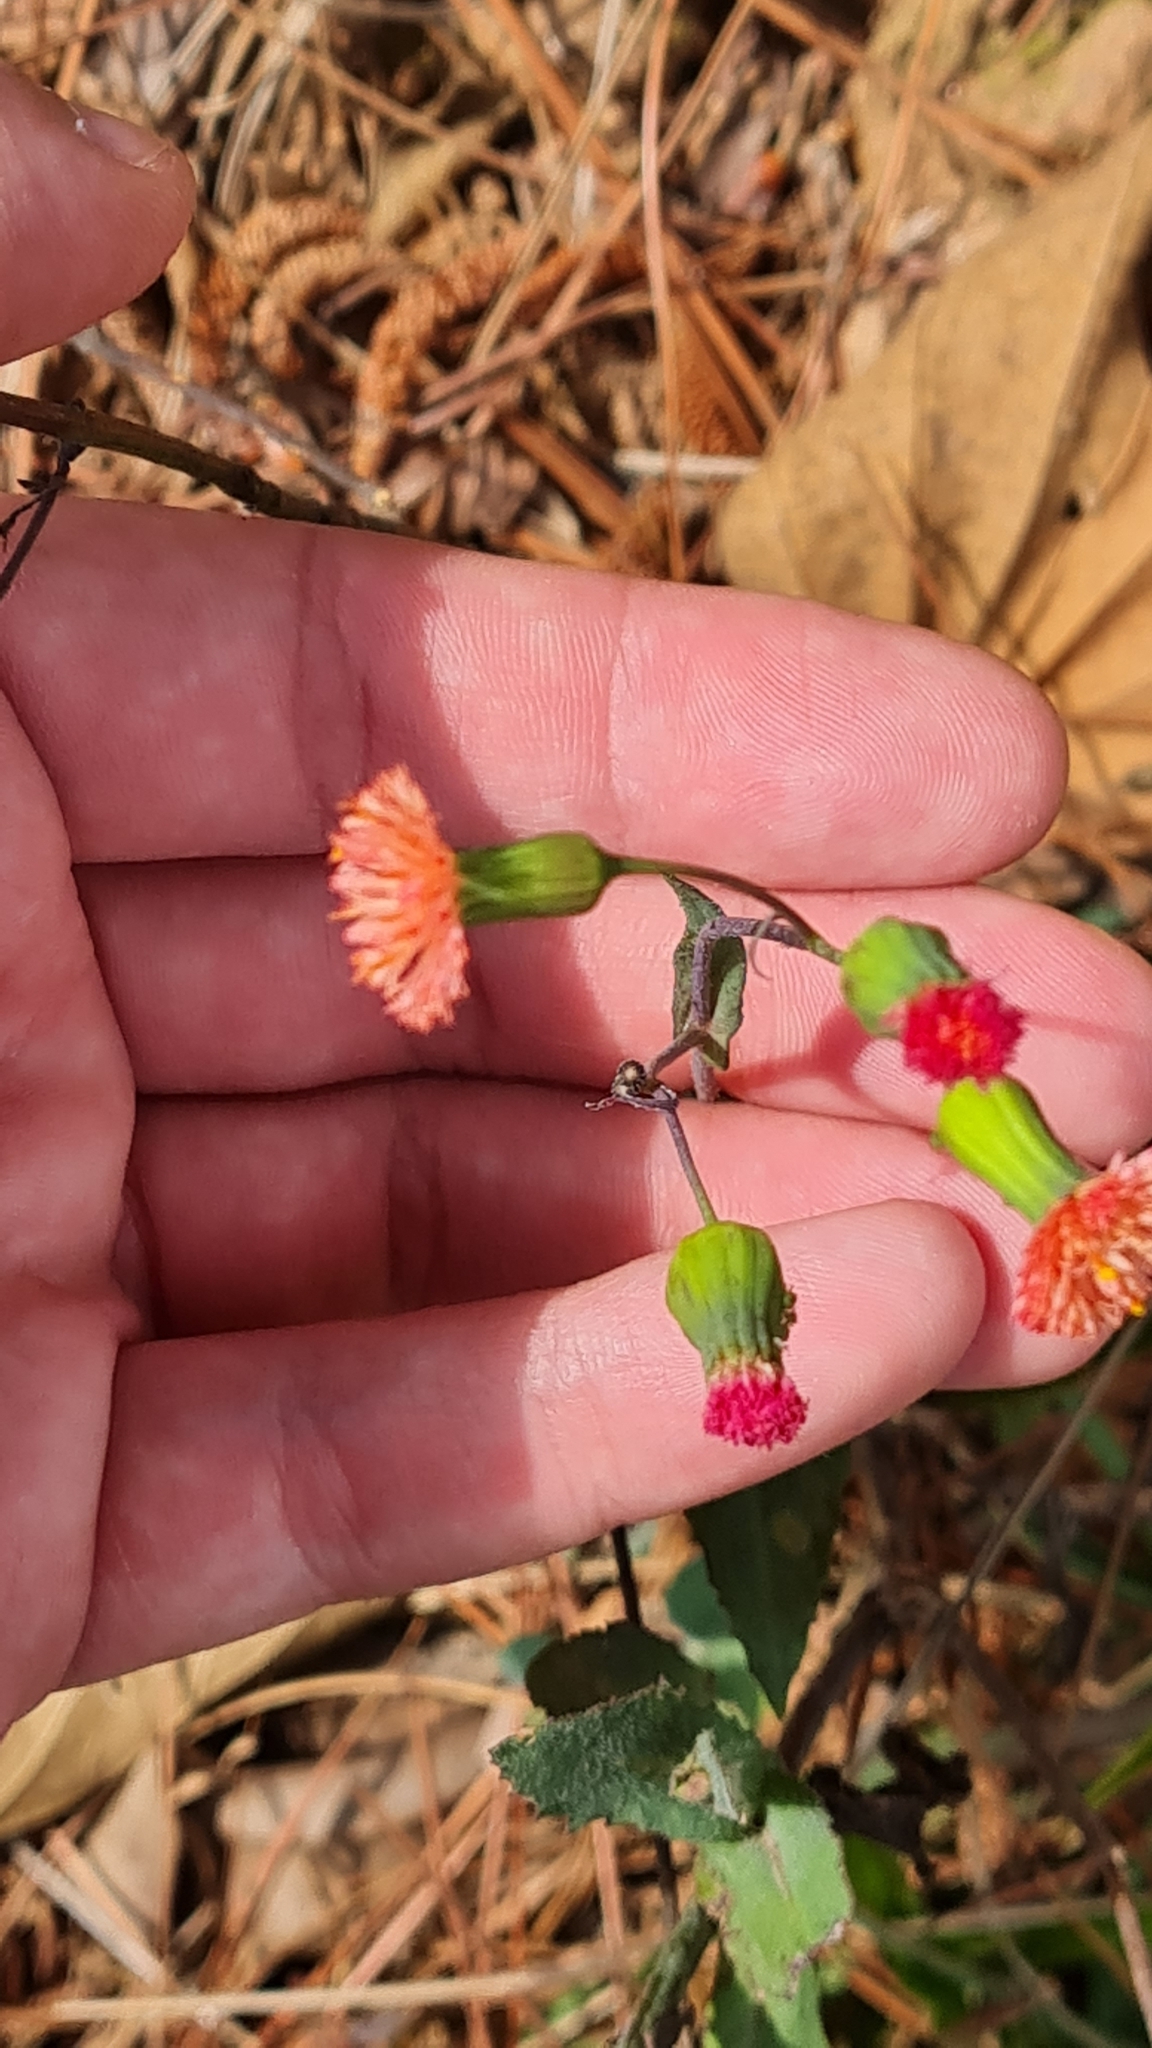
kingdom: Plantae
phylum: Tracheophyta
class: Magnoliopsida
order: Asterales
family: Asteraceae
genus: Emilia
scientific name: Emilia fosbergii
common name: Florida tasselflower
